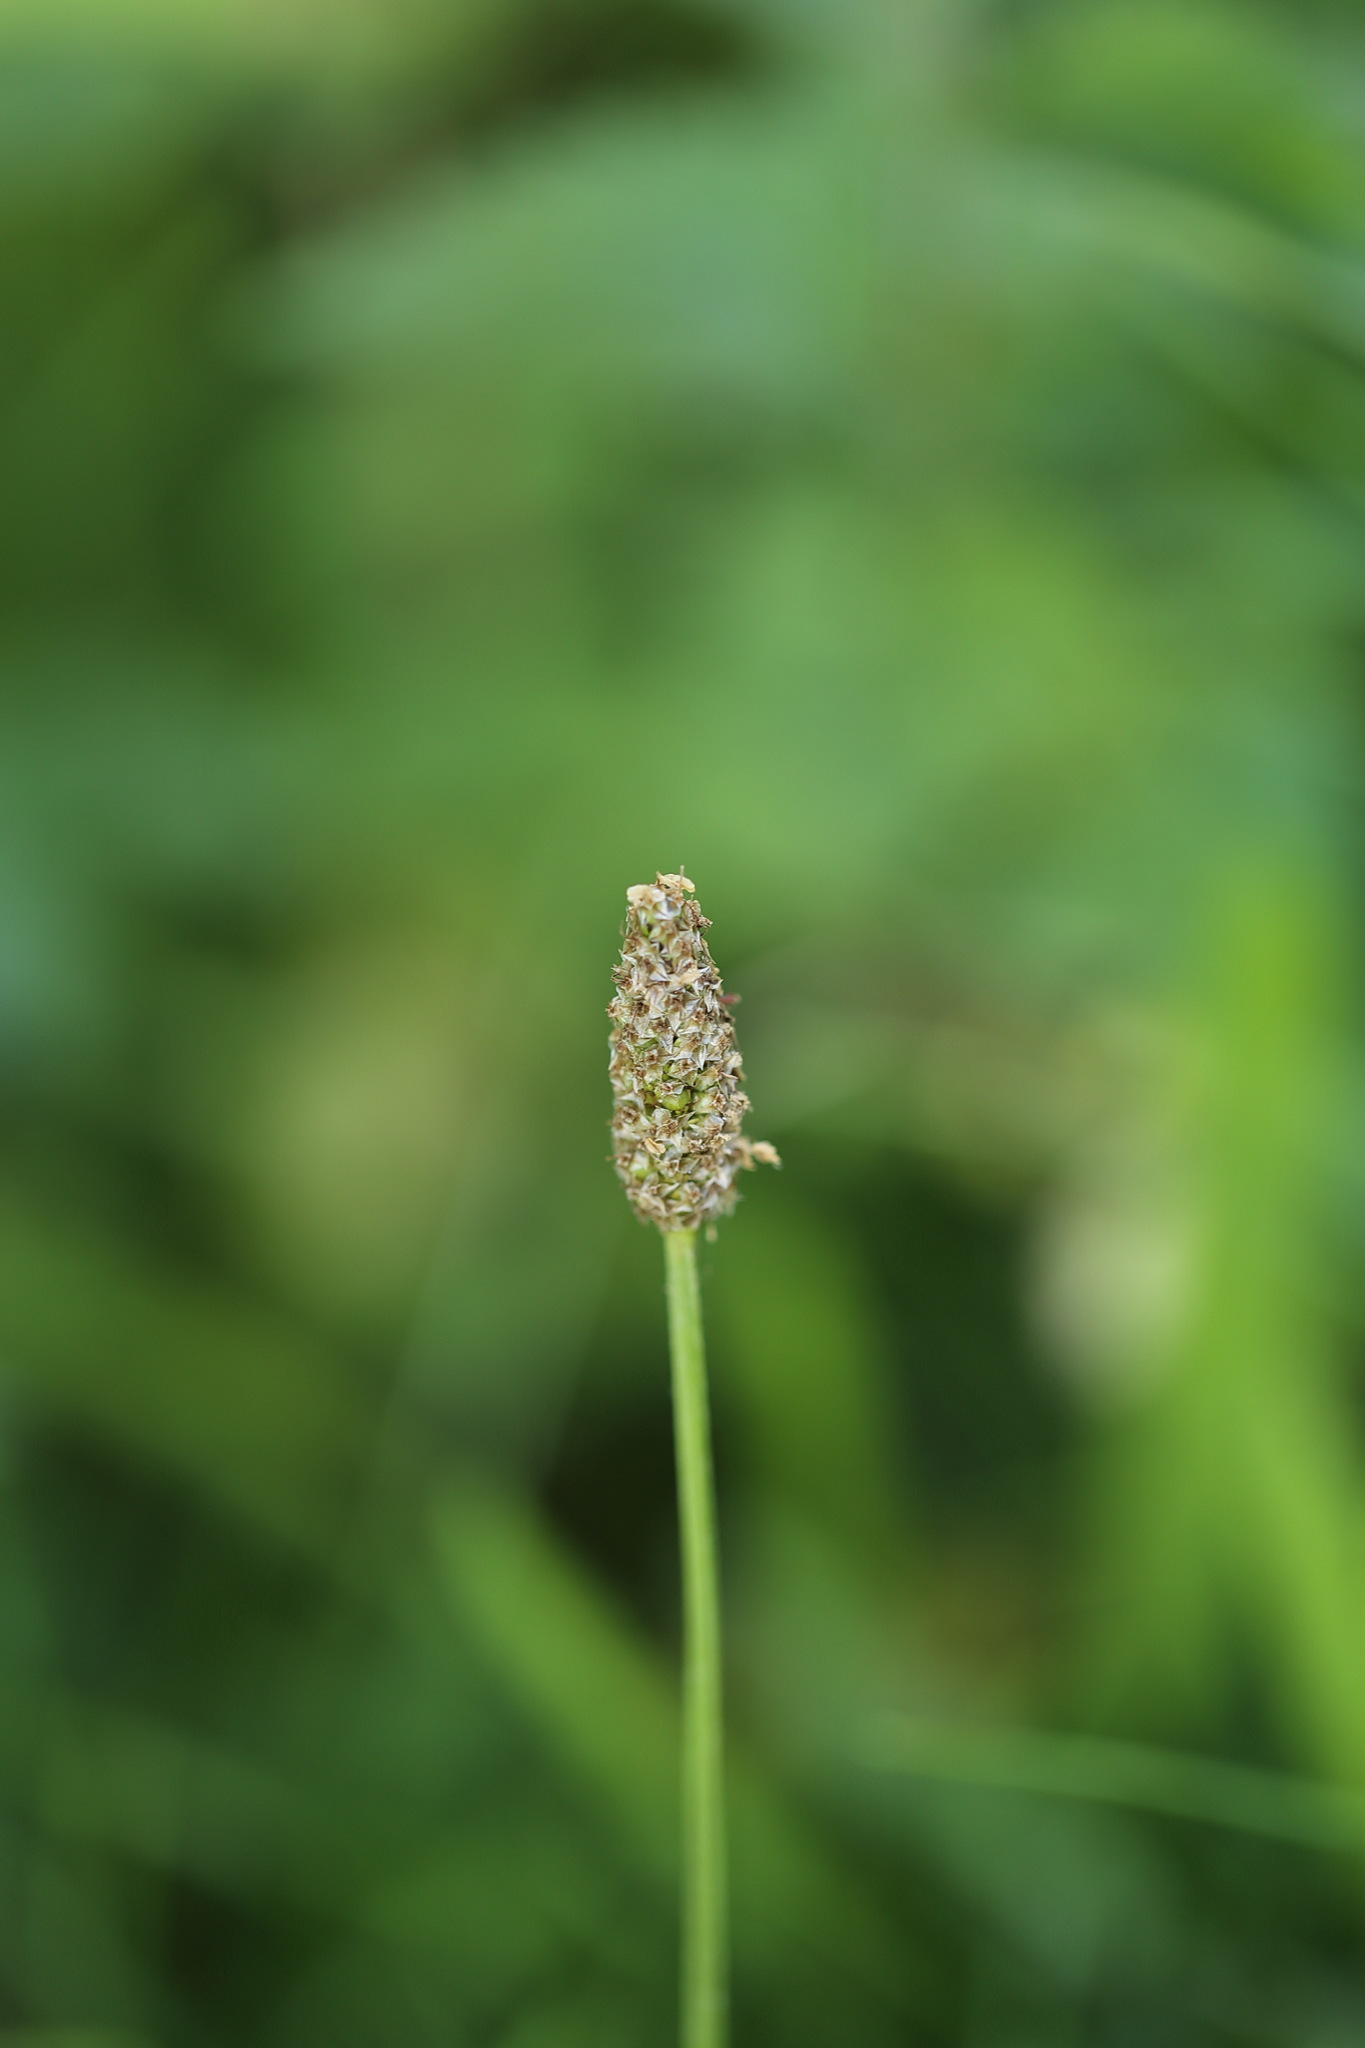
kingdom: Plantae
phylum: Tracheophyta
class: Magnoliopsida
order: Lamiales
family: Plantaginaceae
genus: Plantago
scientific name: Plantago lanceolata
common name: Ribwort plantain
